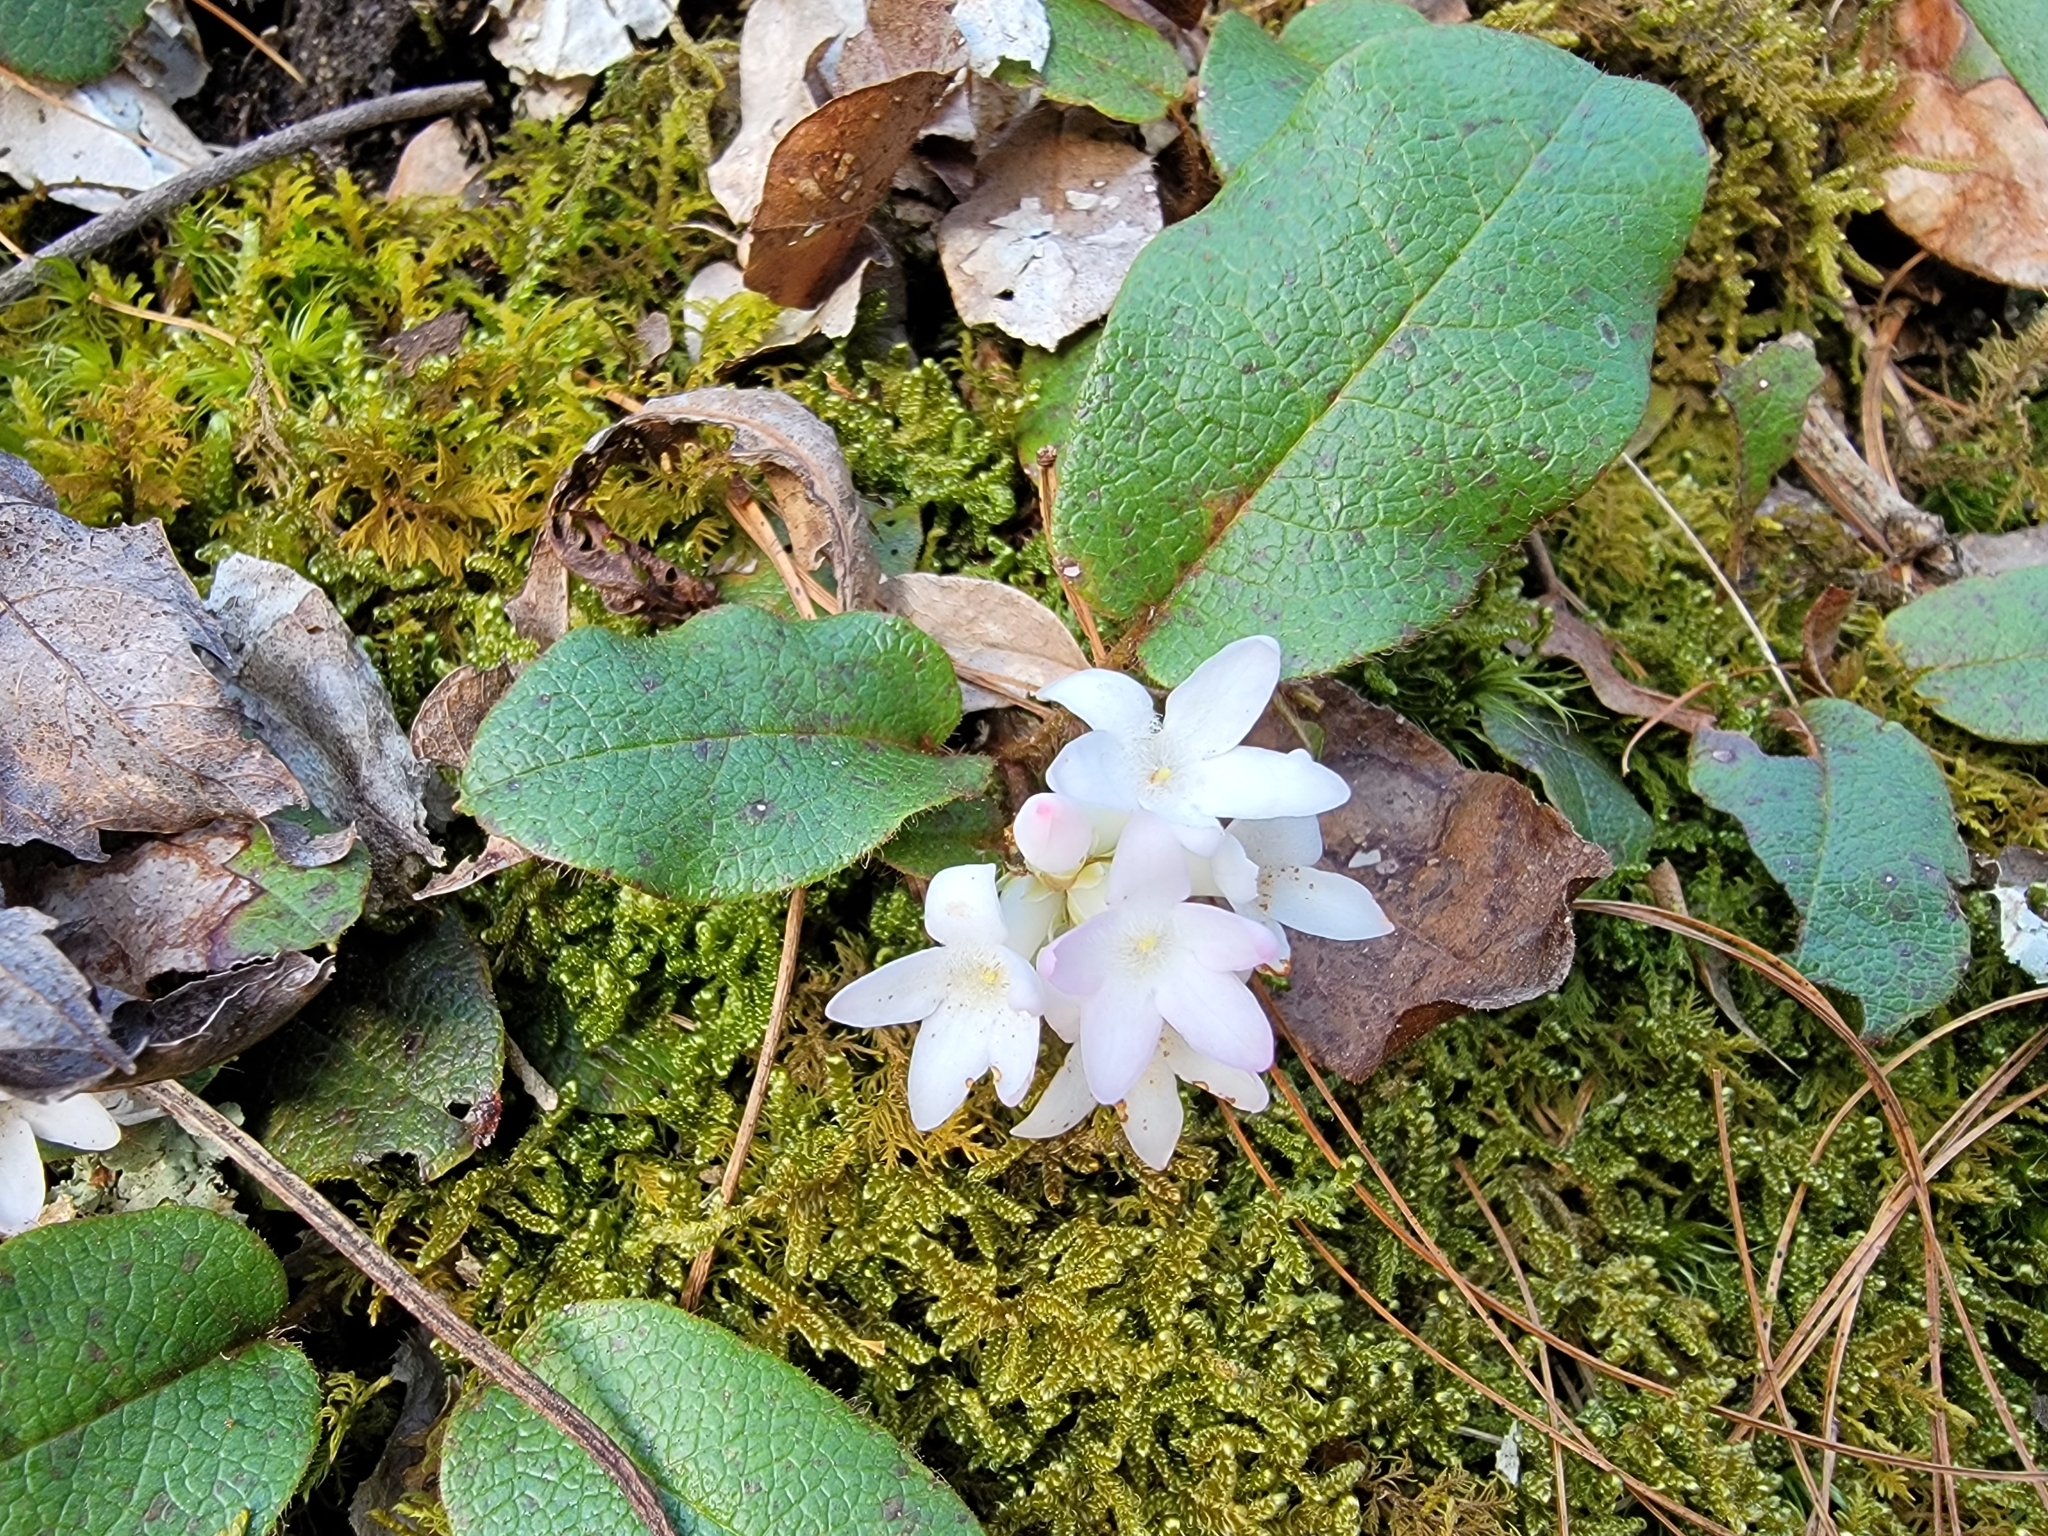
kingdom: Plantae
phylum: Tracheophyta
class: Magnoliopsida
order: Ericales
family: Ericaceae
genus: Epigaea
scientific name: Epigaea repens
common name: Gravelroot
